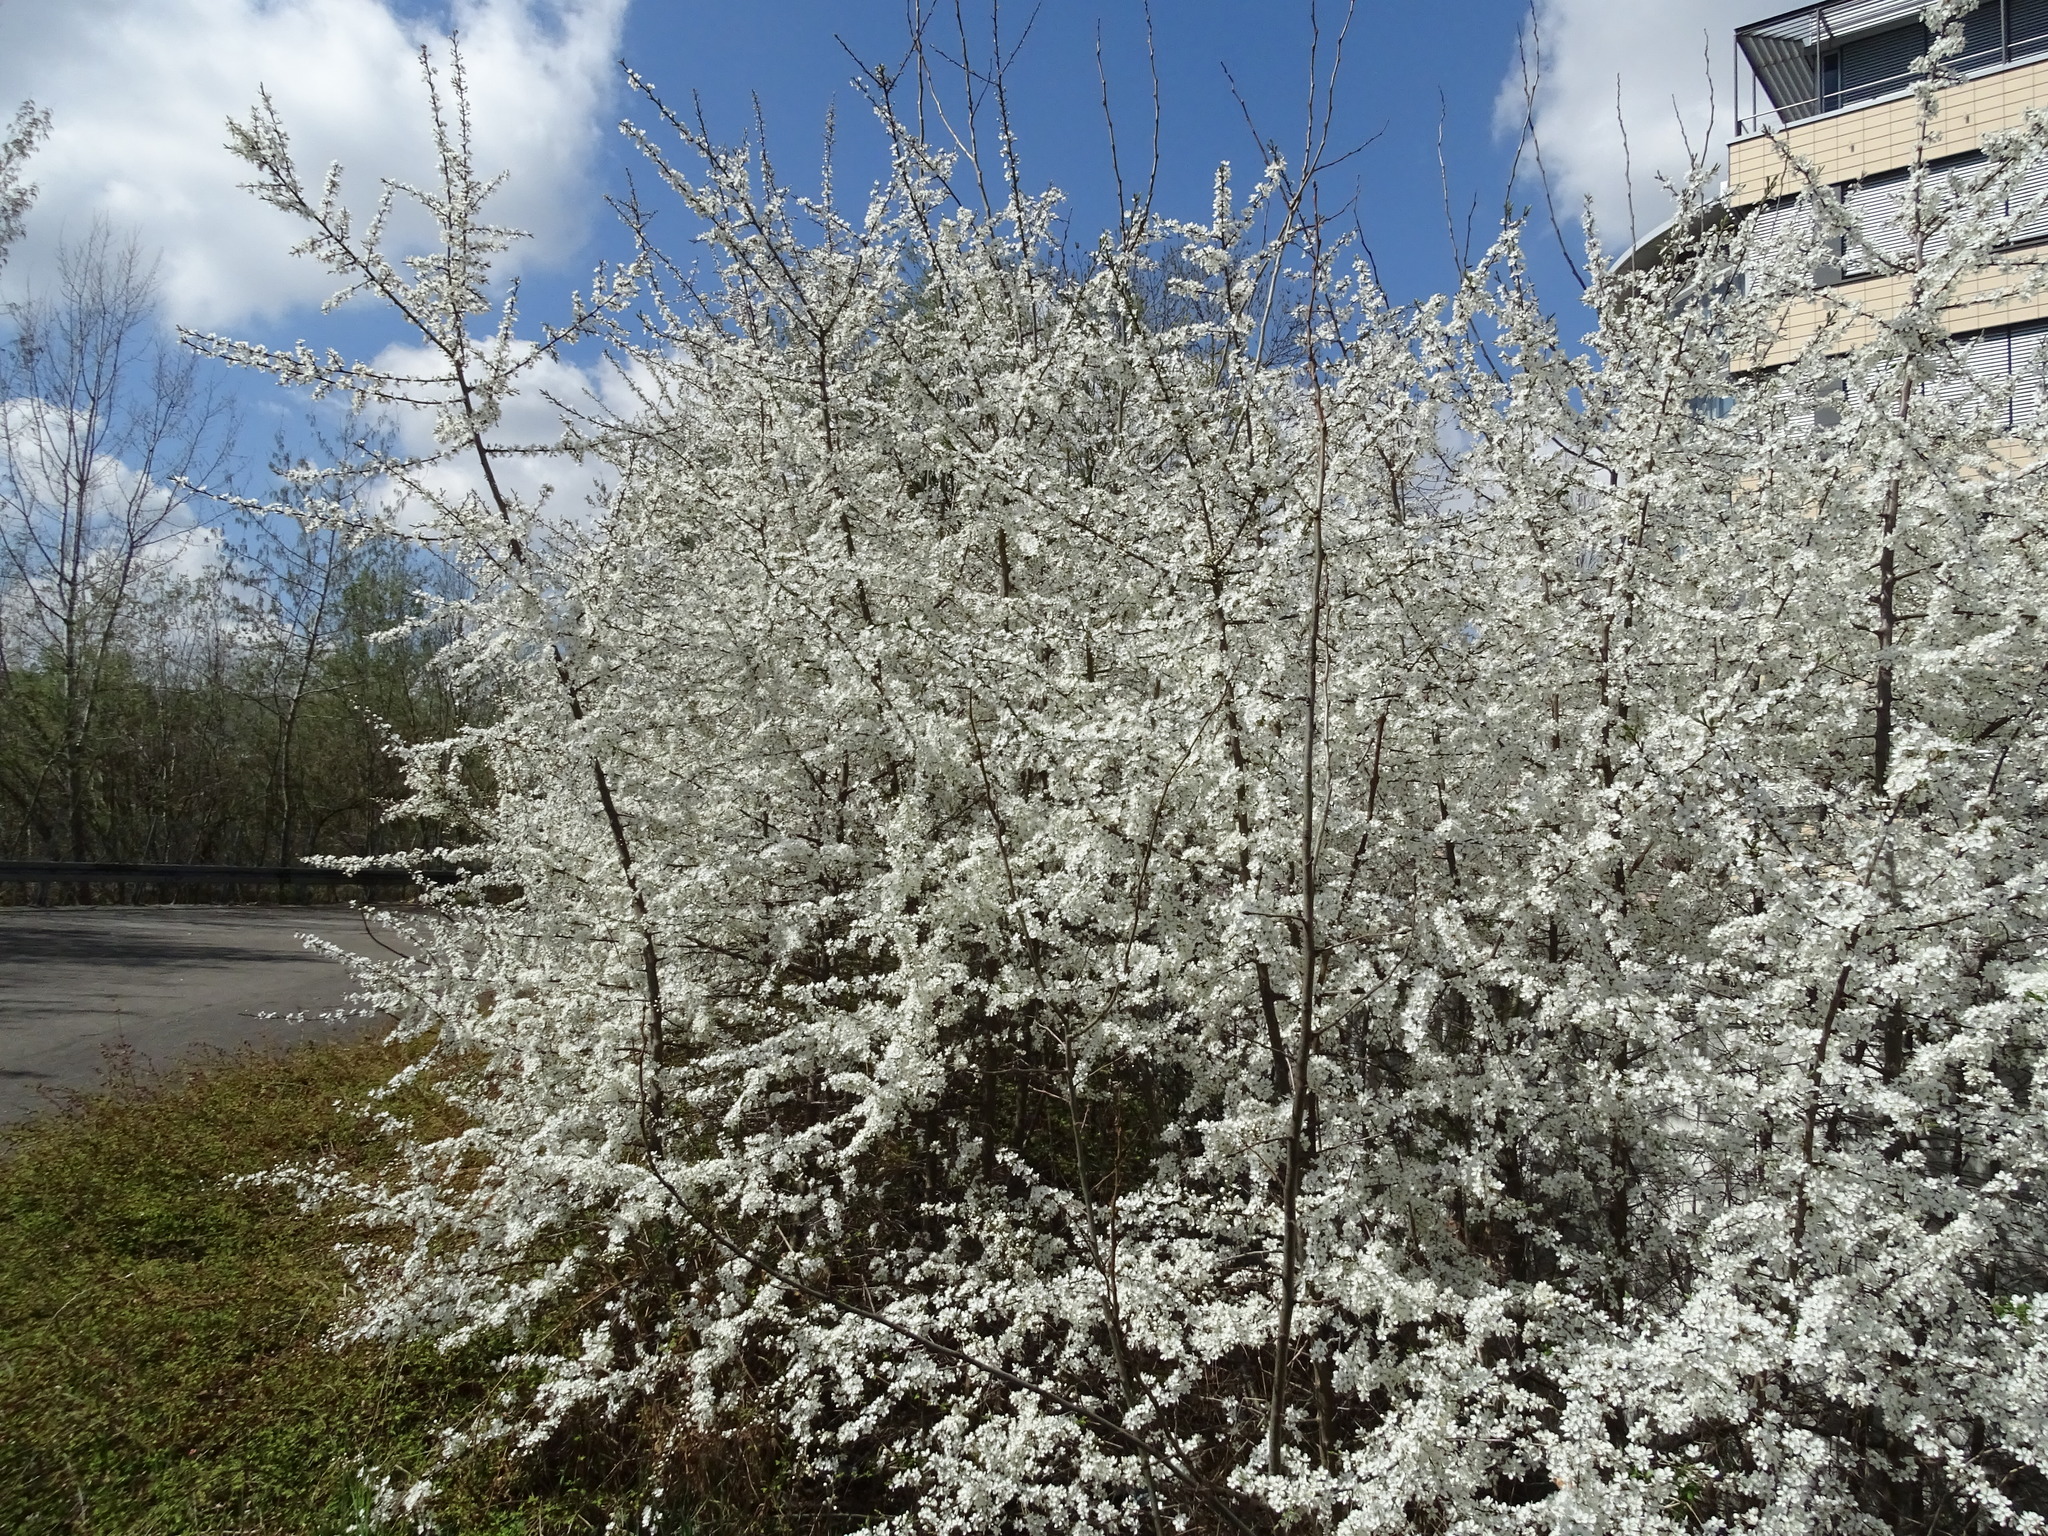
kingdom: Plantae
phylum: Tracheophyta
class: Magnoliopsida
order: Rosales
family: Rosaceae
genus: Prunus
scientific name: Prunus spinosa
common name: Blackthorn
